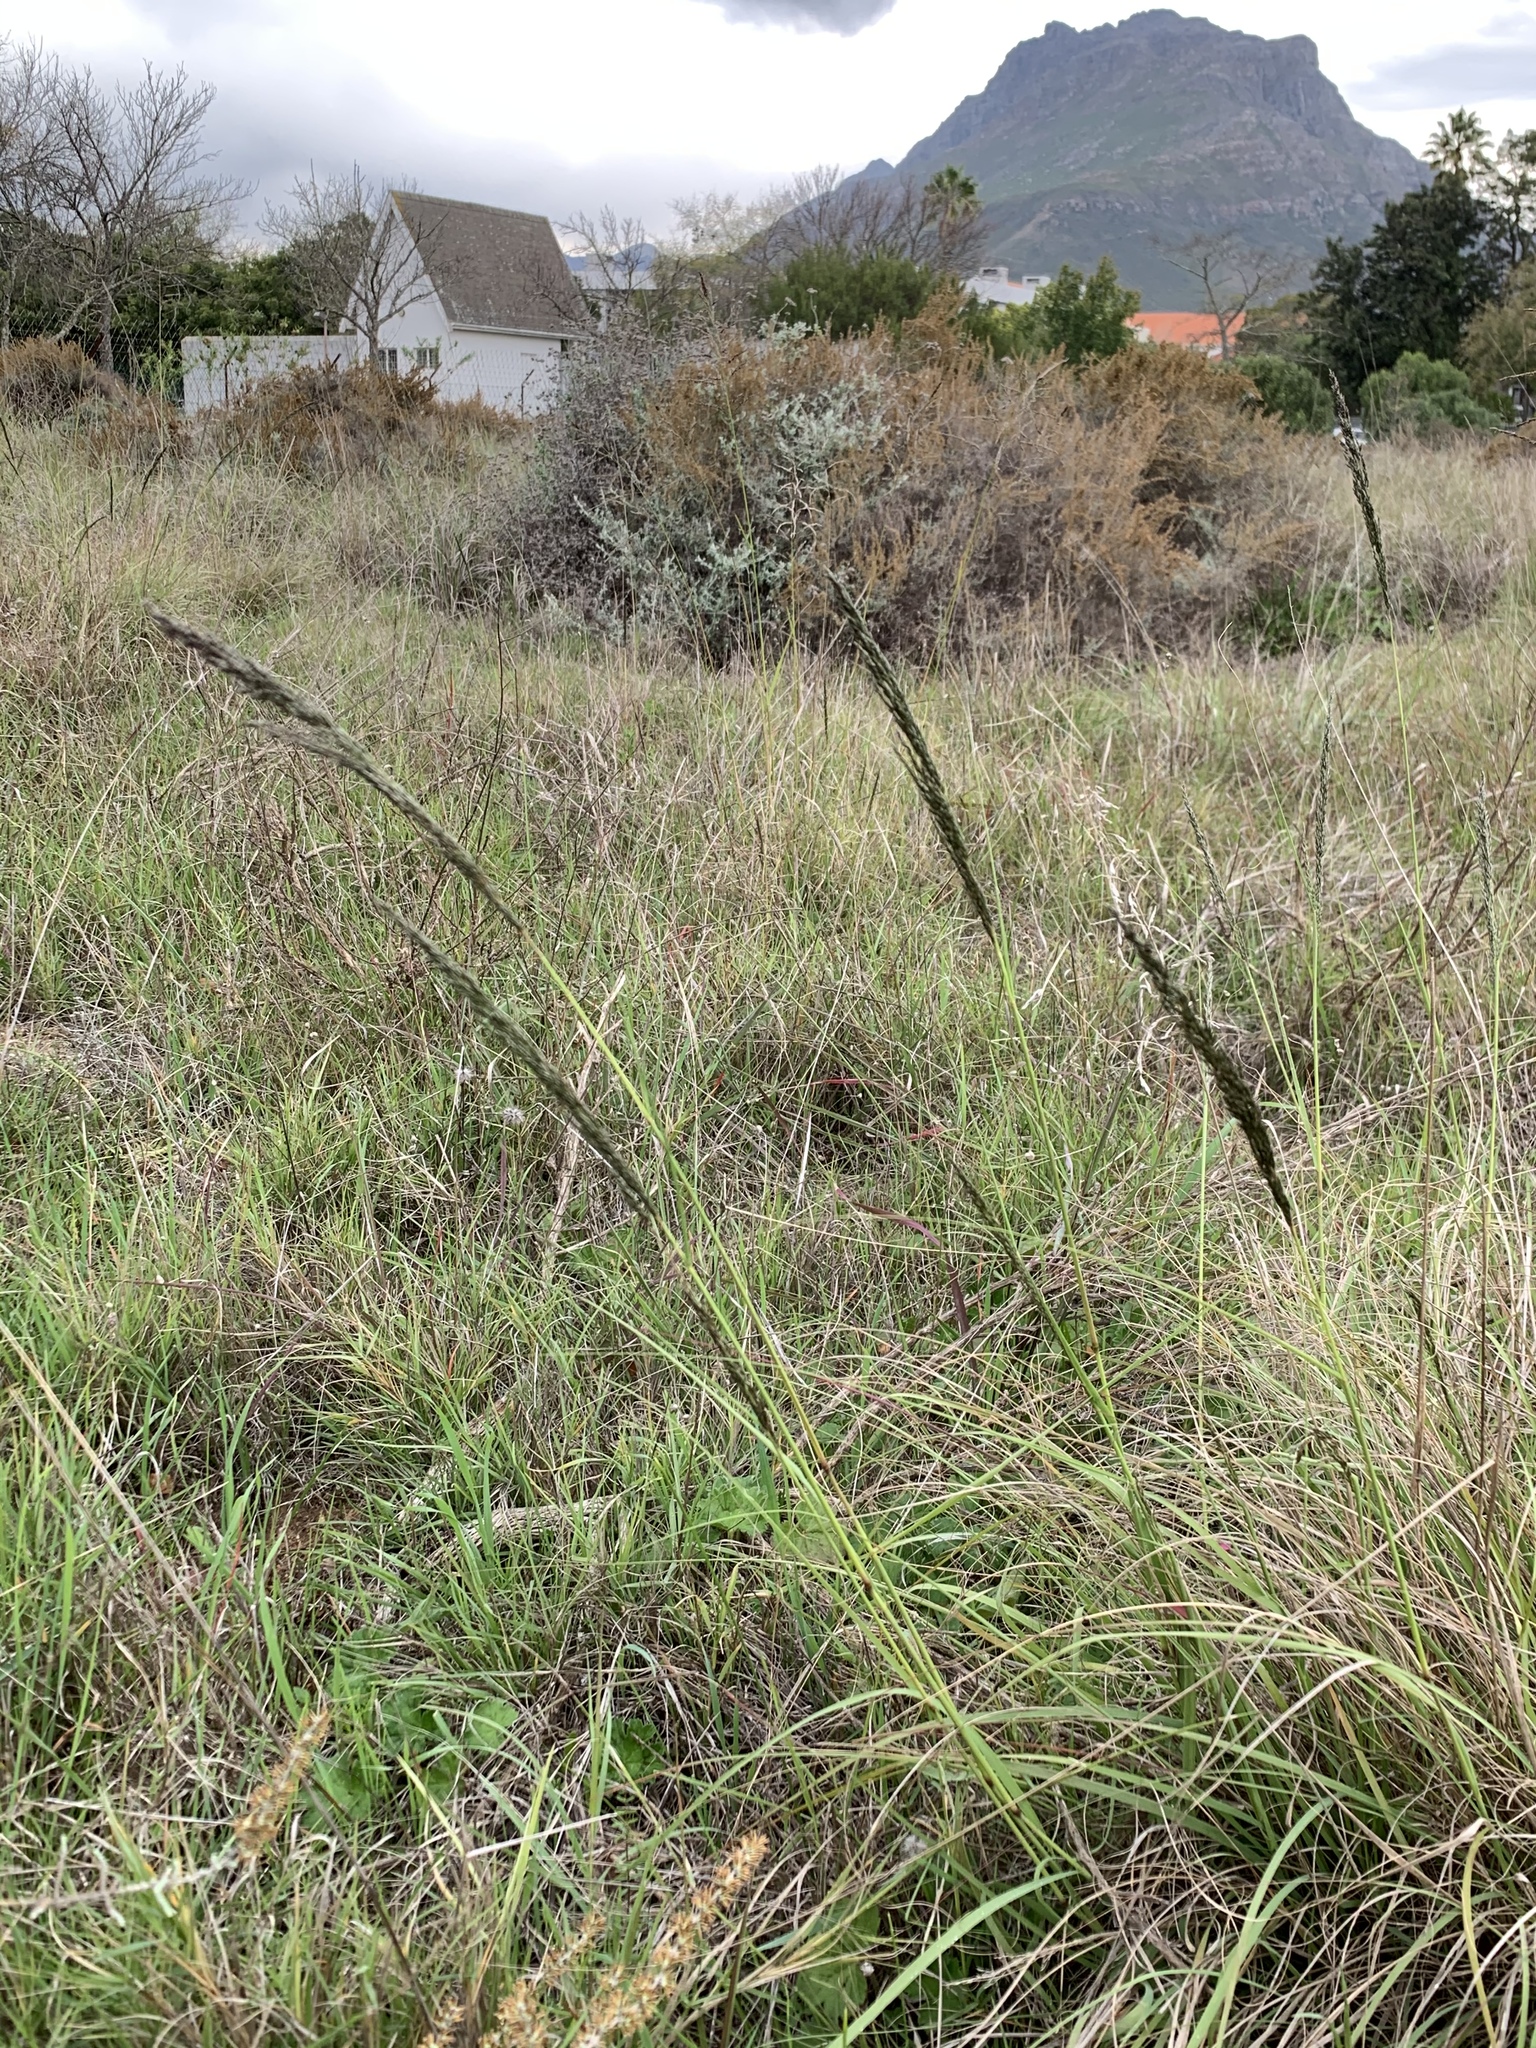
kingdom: Plantae
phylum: Tracheophyta
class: Liliopsida
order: Poales
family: Poaceae
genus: Eragrostis
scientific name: Eragrostis curvula
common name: African love-grass
